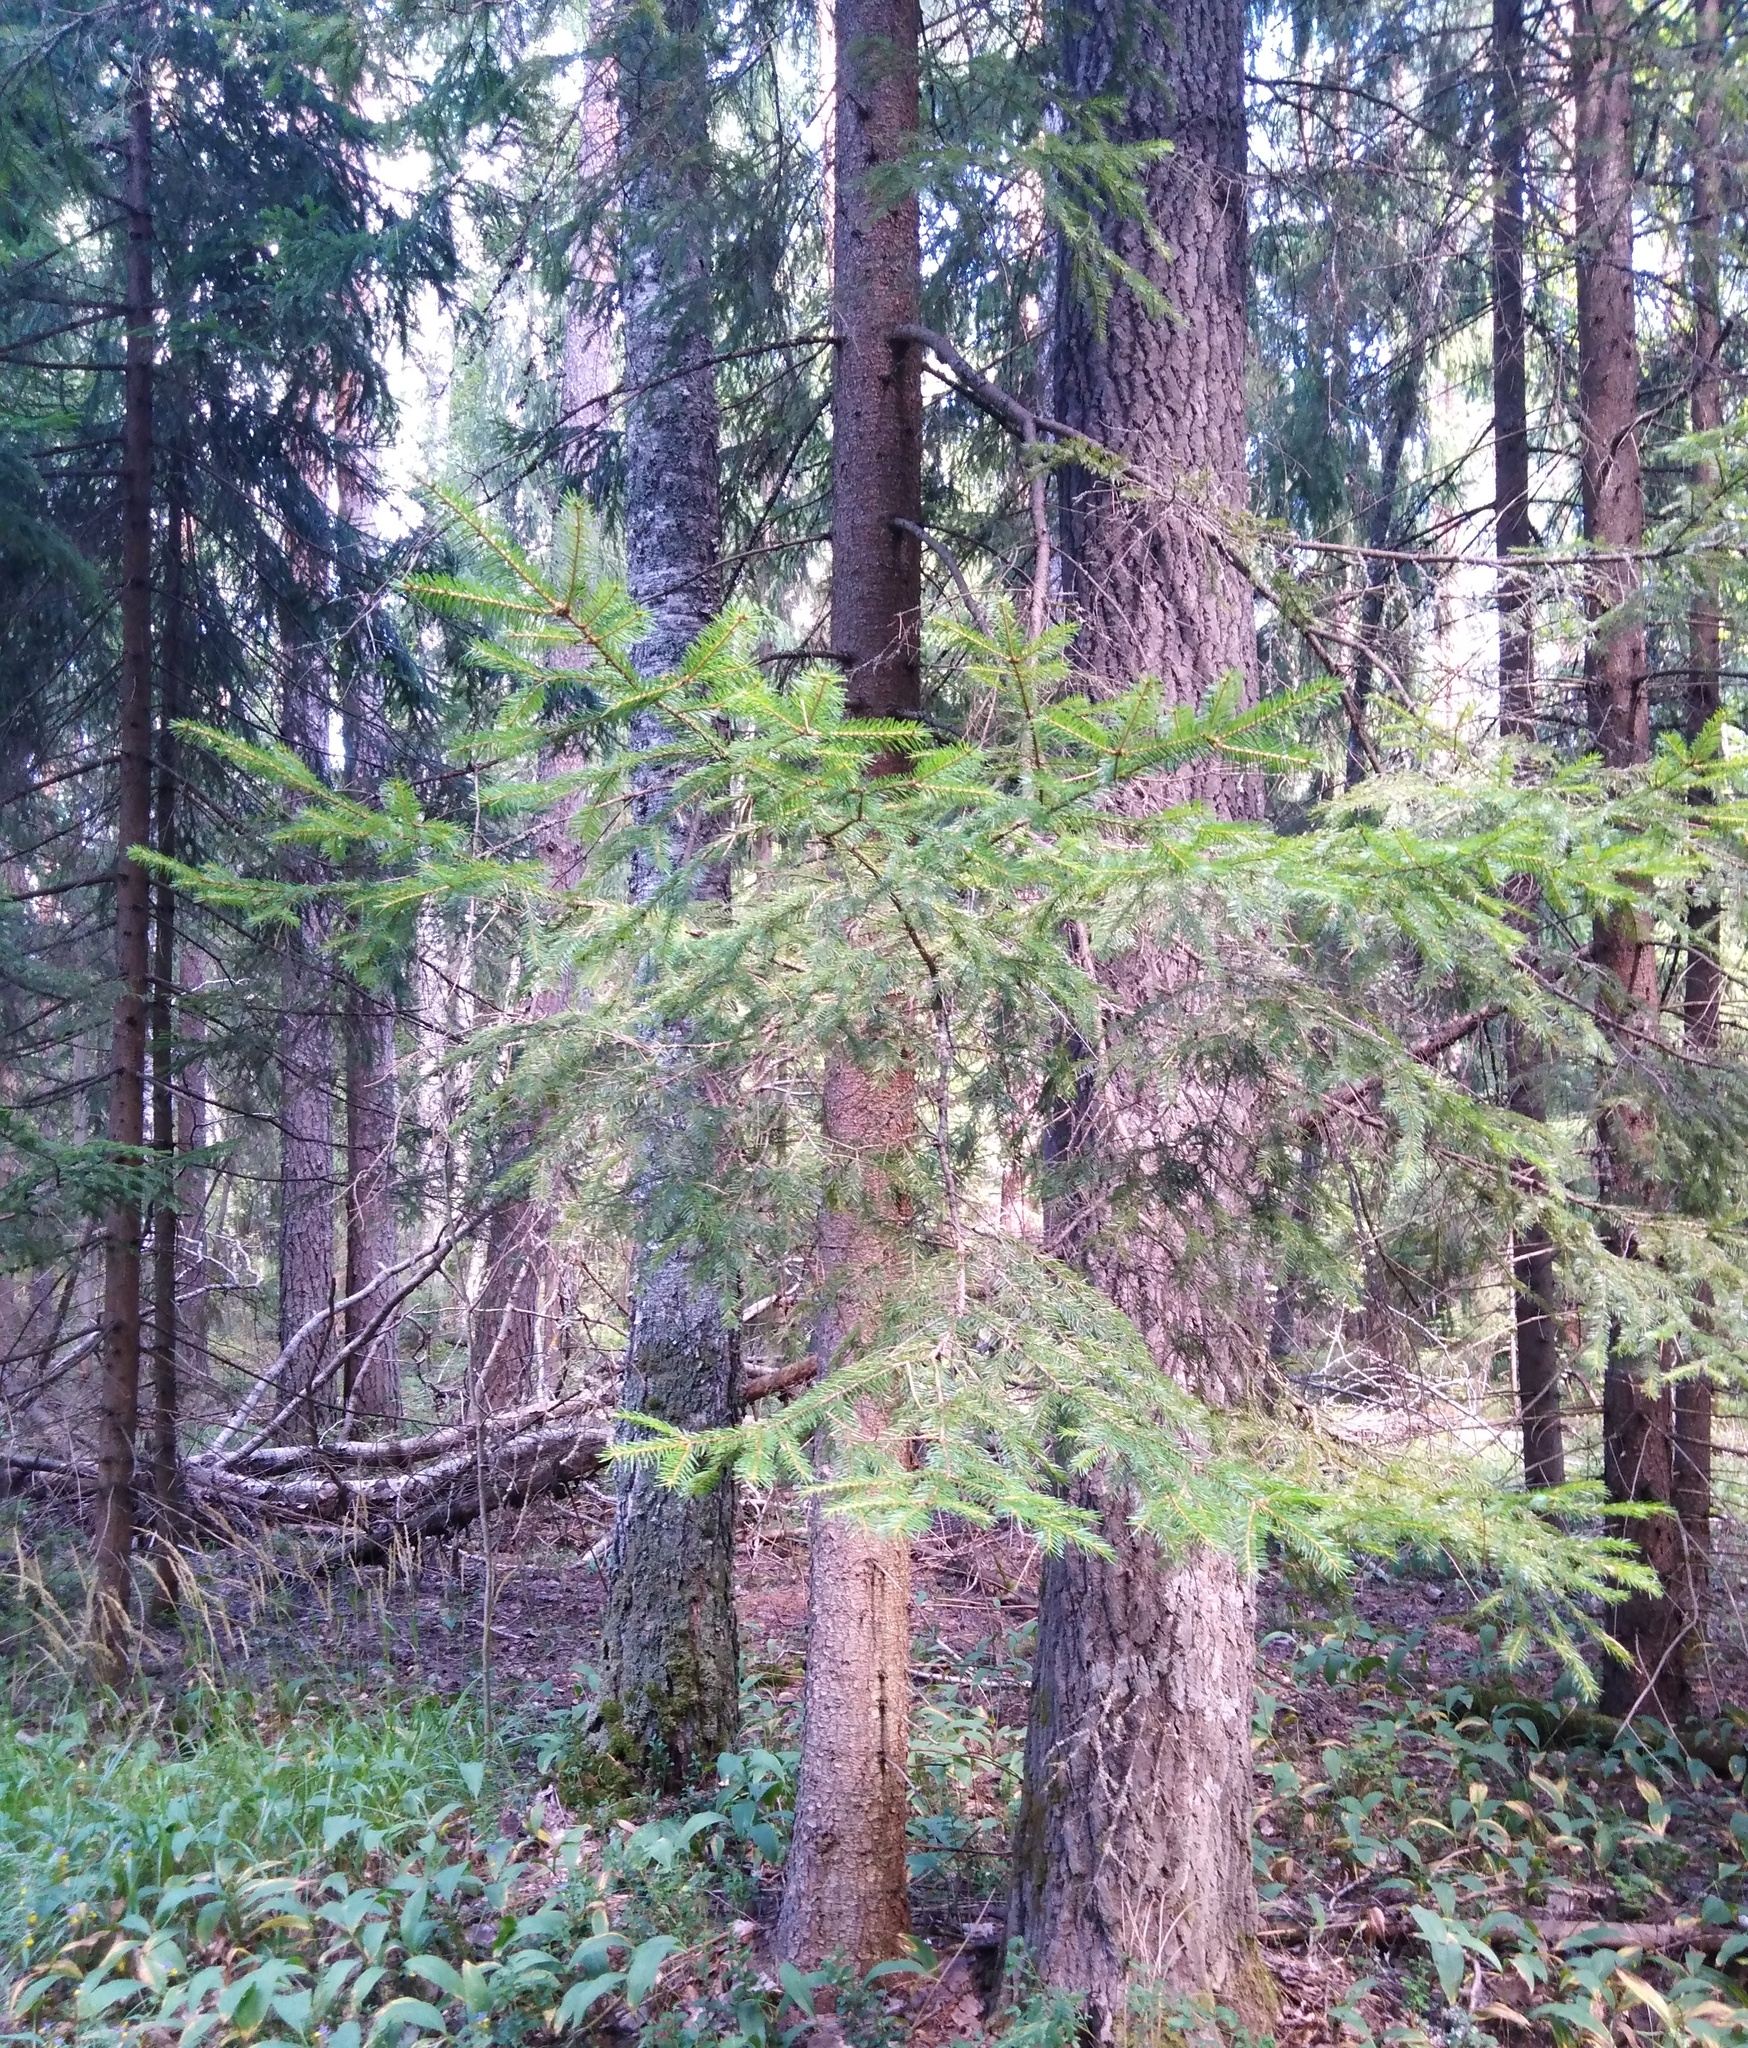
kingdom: Plantae
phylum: Tracheophyta
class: Pinopsida
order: Pinales
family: Pinaceae
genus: Picea
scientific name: Picea abies
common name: Norway spruce
